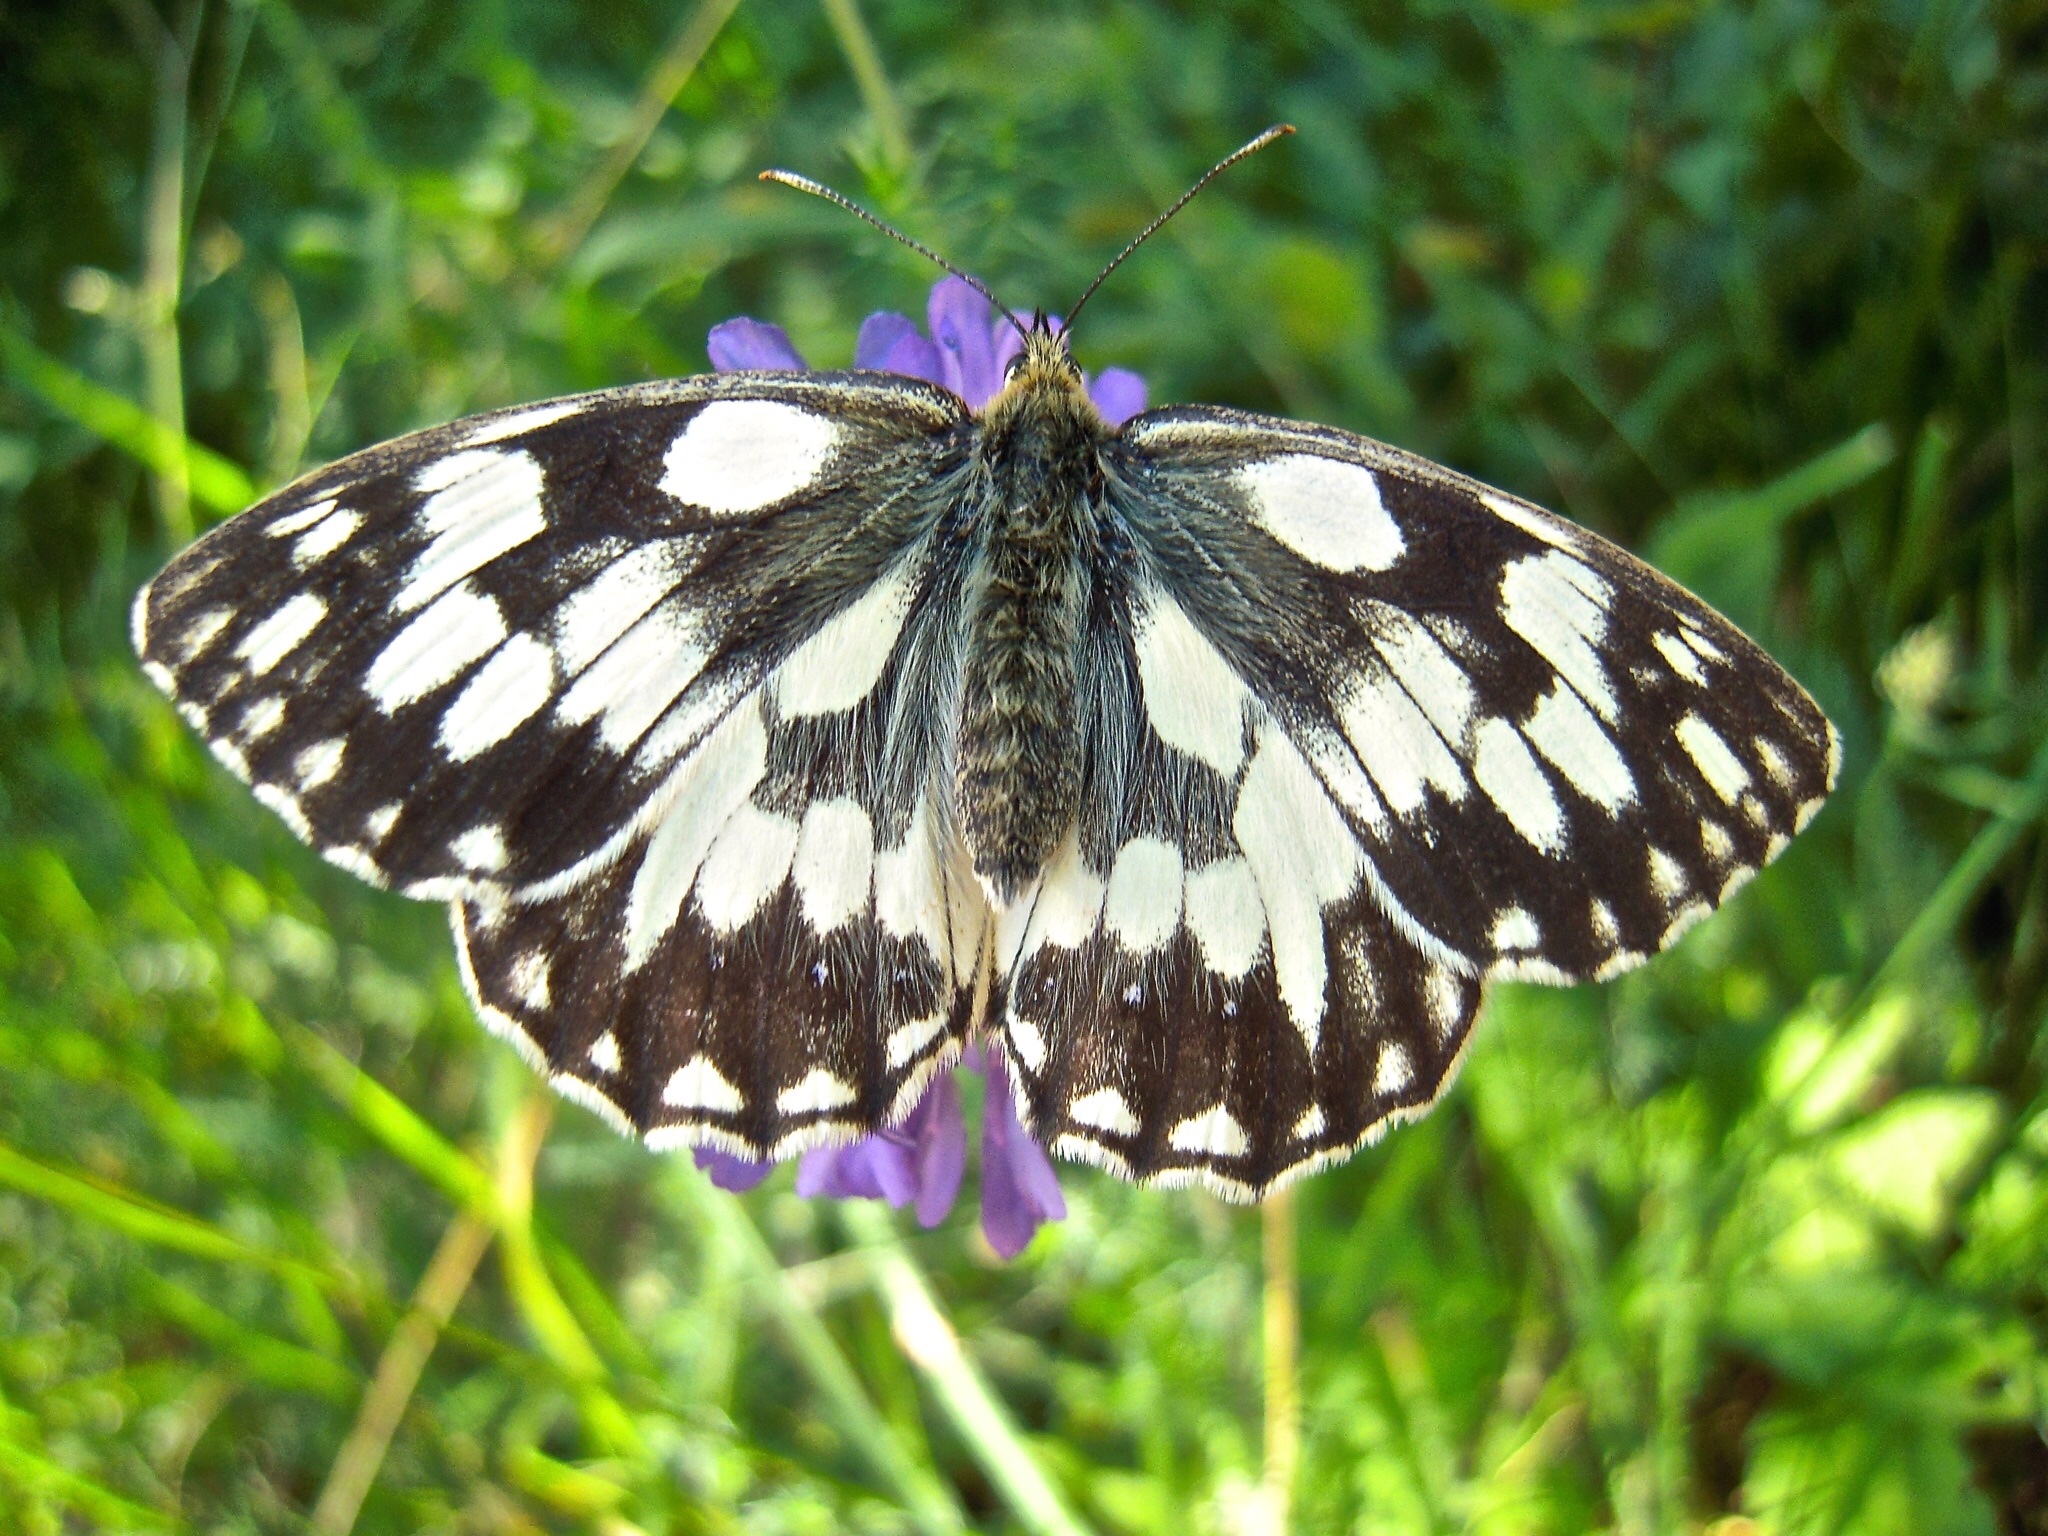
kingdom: Animalia
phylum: Arthropoda
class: Insecta
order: Lepidoptera
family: Nymphalidae
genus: Melanargia
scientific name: Melanargia galathea
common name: Marbled white
